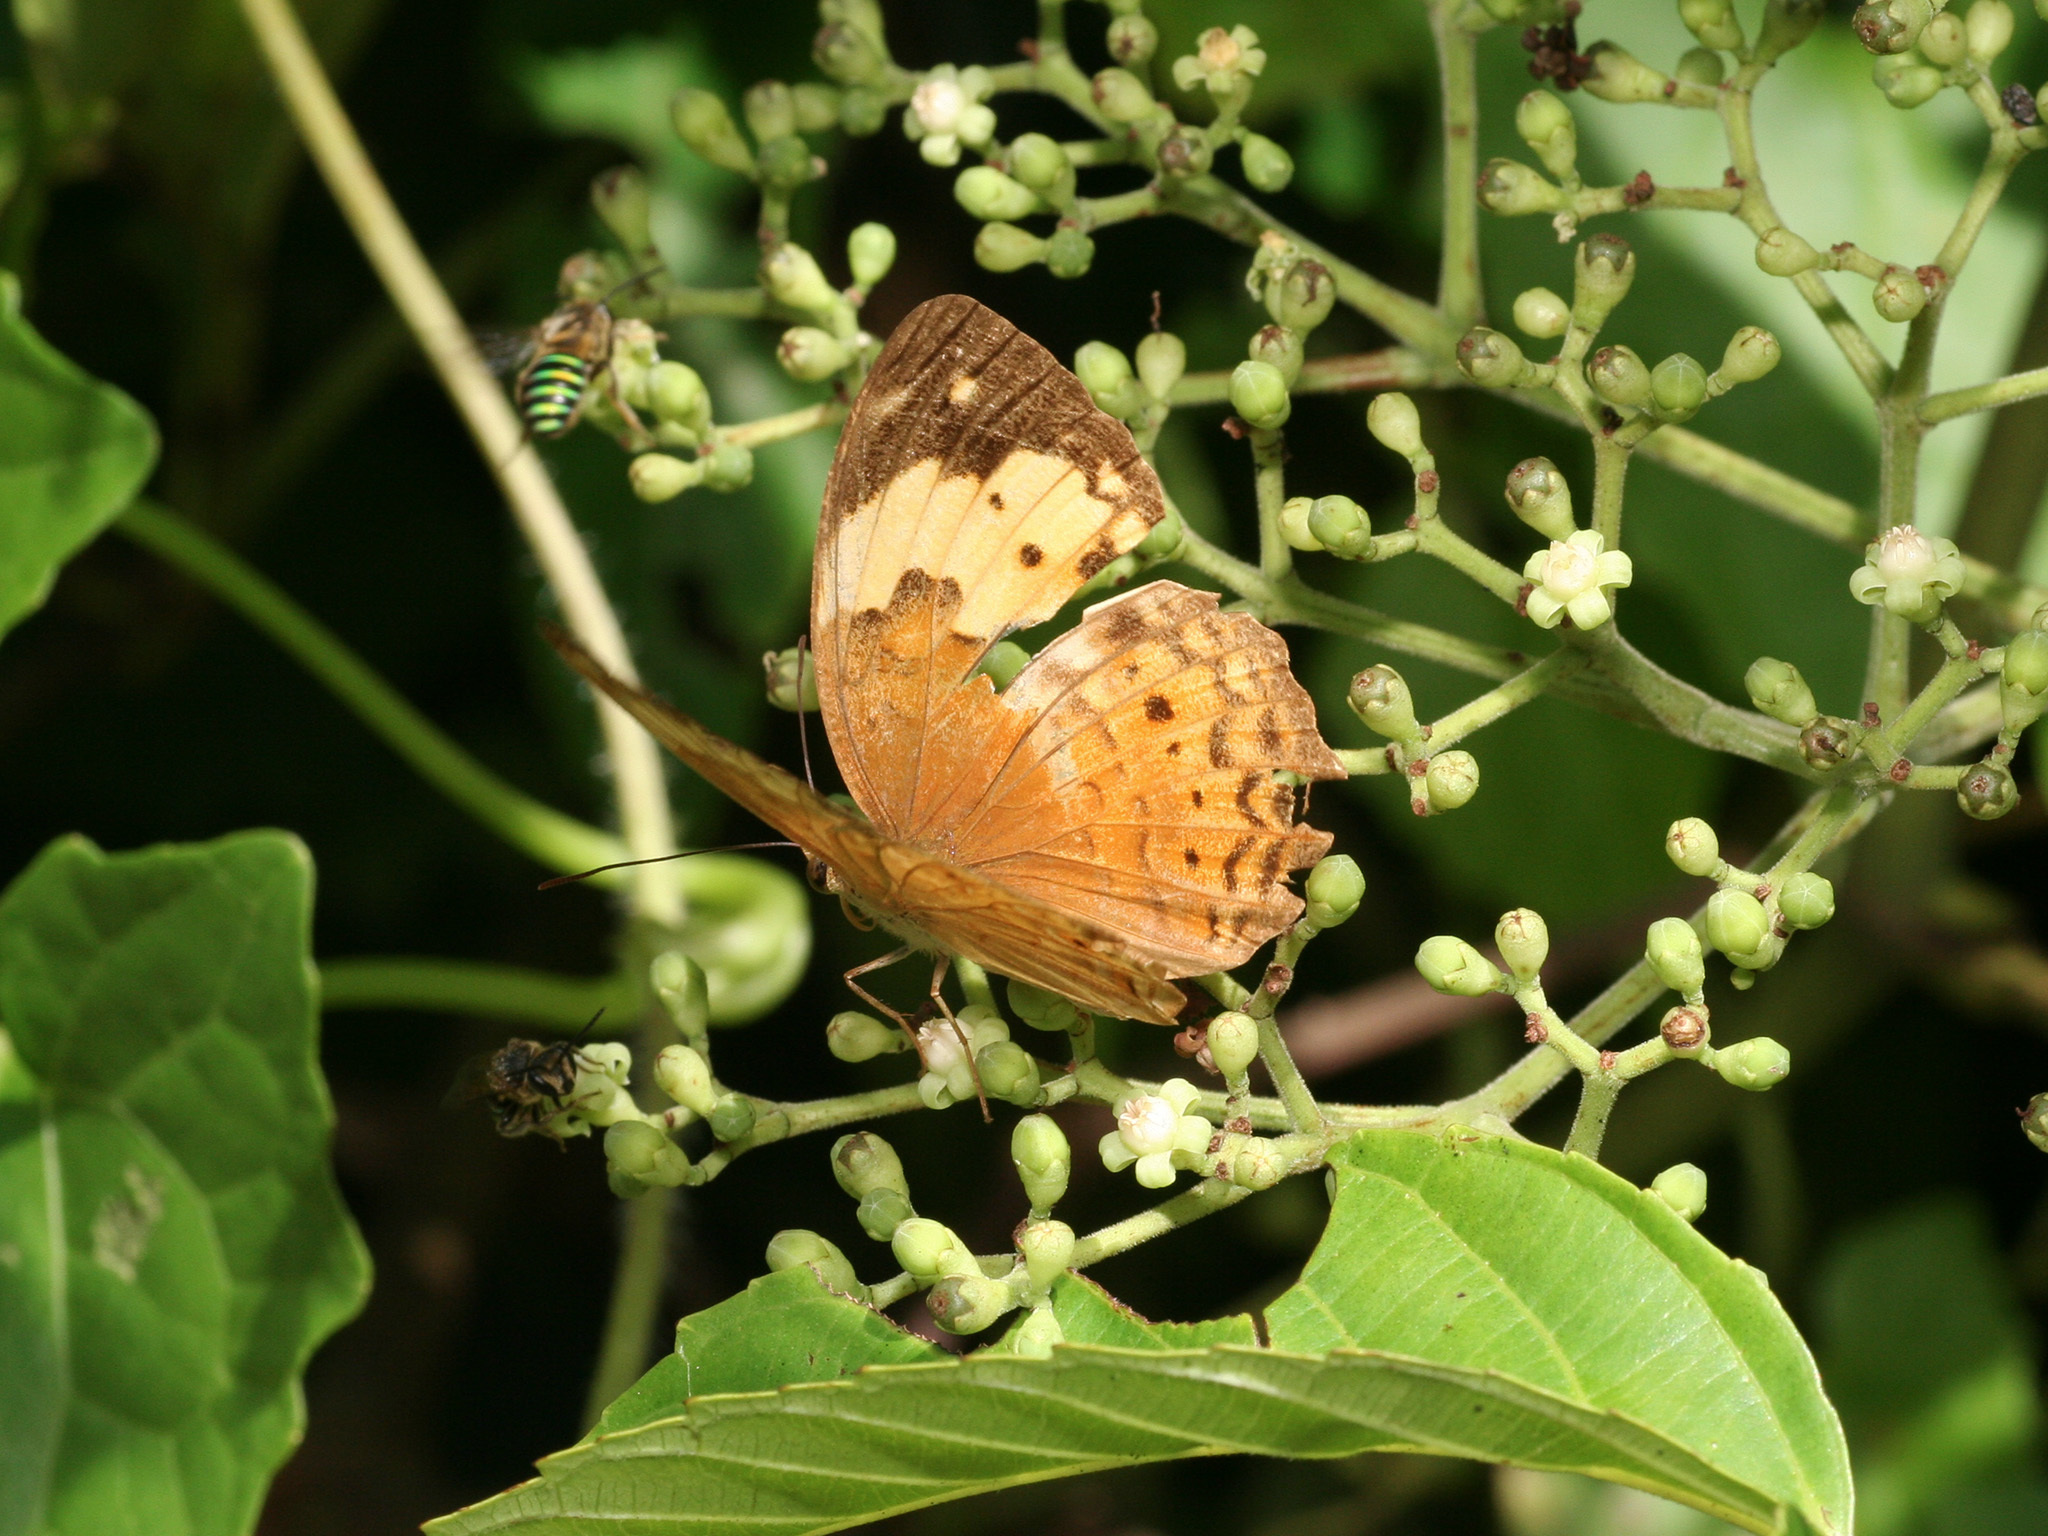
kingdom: Animalia
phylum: Arthropoda
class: Insecta
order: Lepidoptera
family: Nymphalidae
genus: Cupha
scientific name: Cupha erymanthis
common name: Rustic
